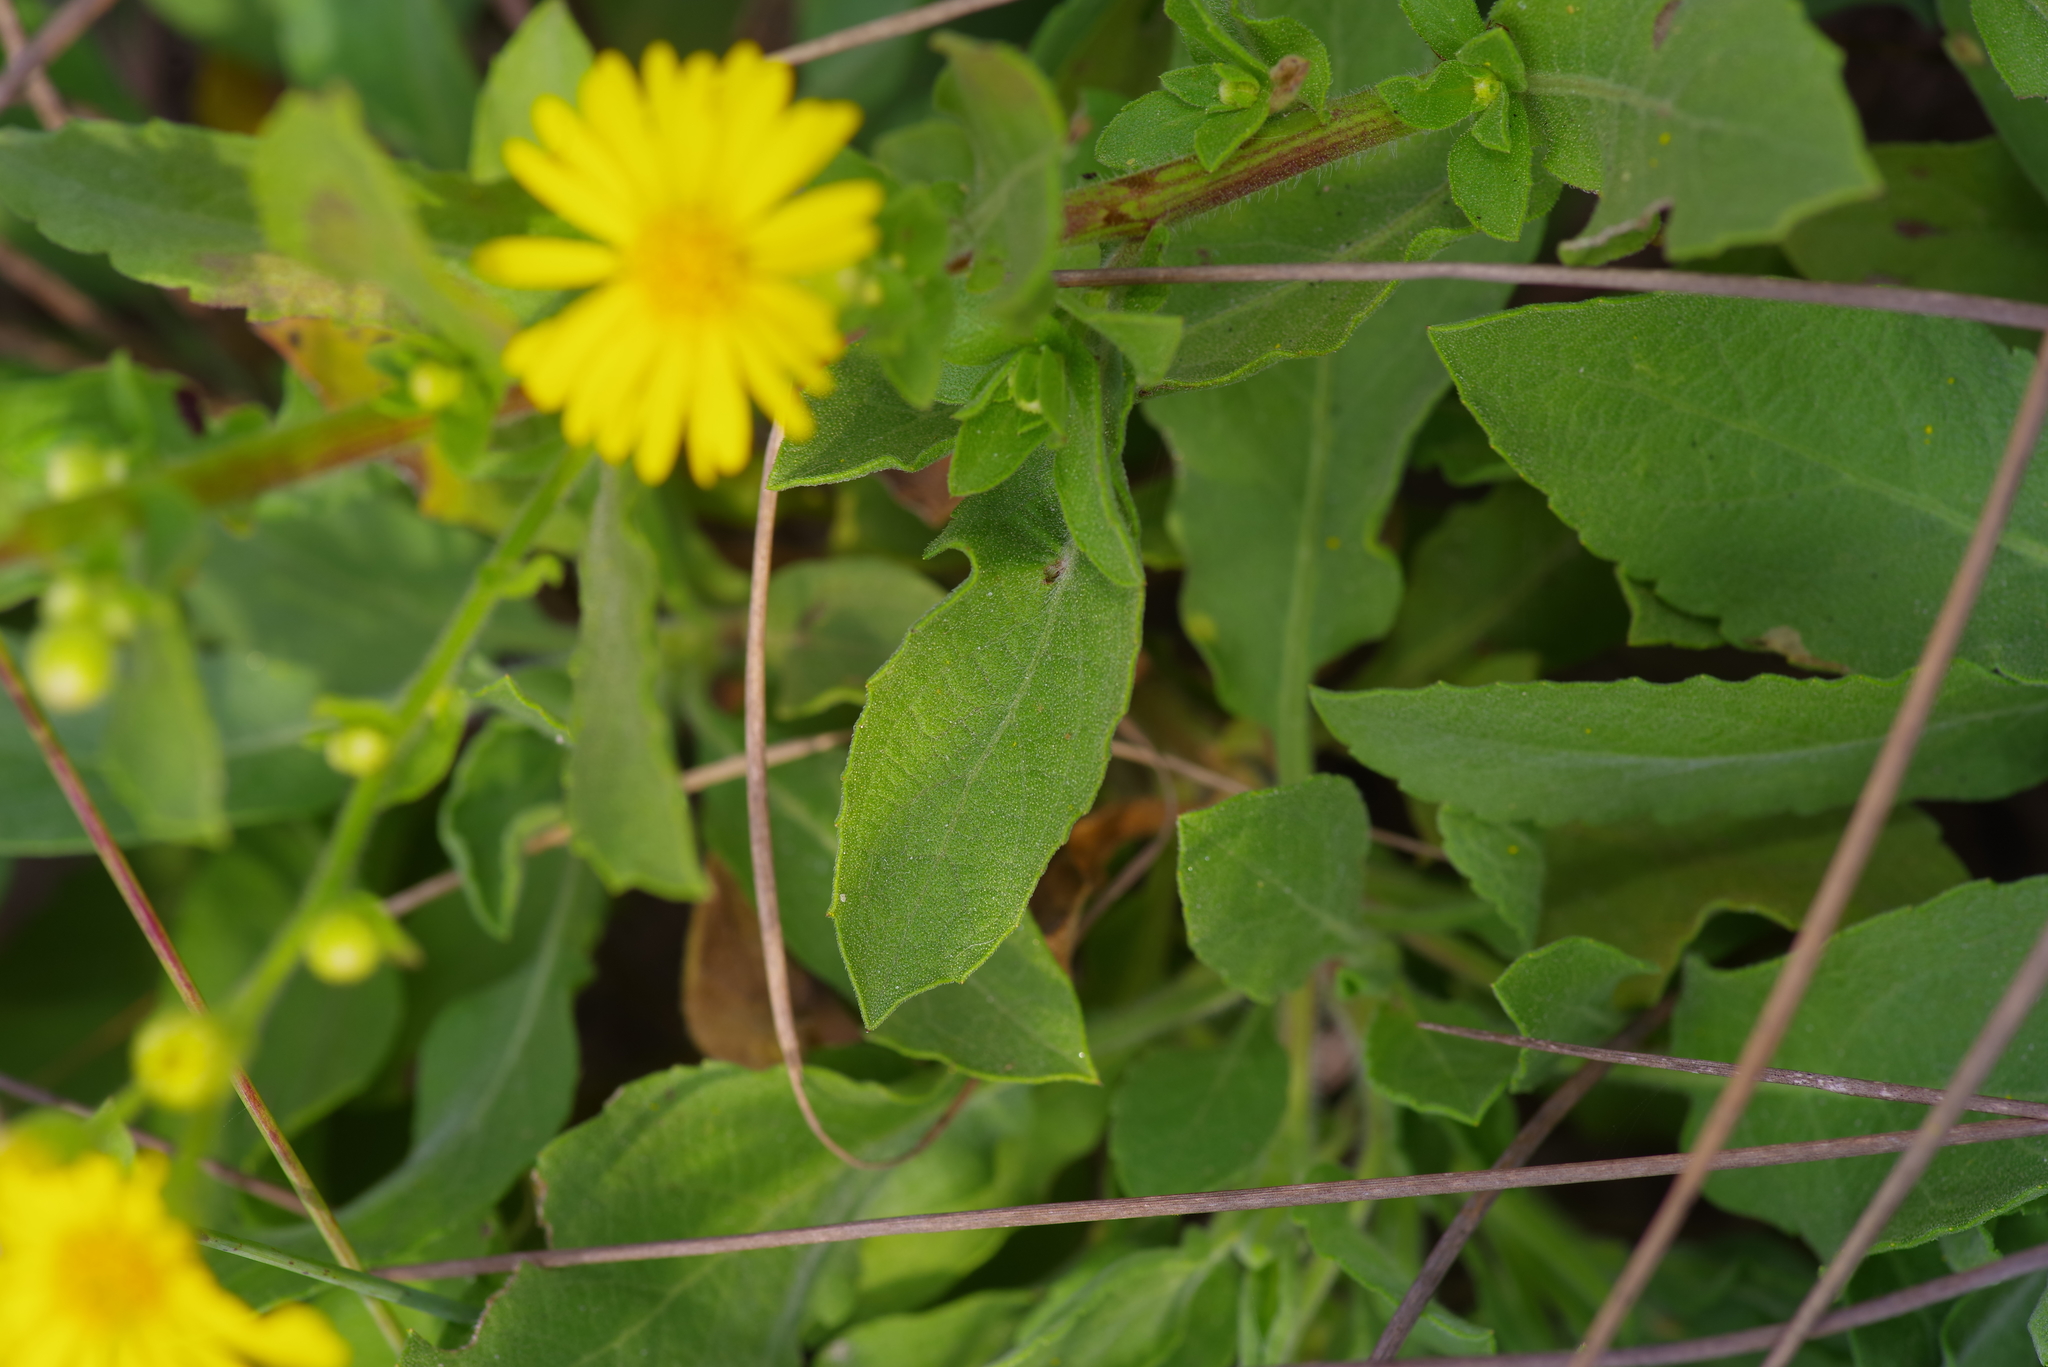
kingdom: Plantae
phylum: Tracheophyta
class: Magnoliopsida
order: Asterales
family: Asteraceae
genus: Heterotheca
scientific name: Heterotheca subaxillaris
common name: Camphorweed
